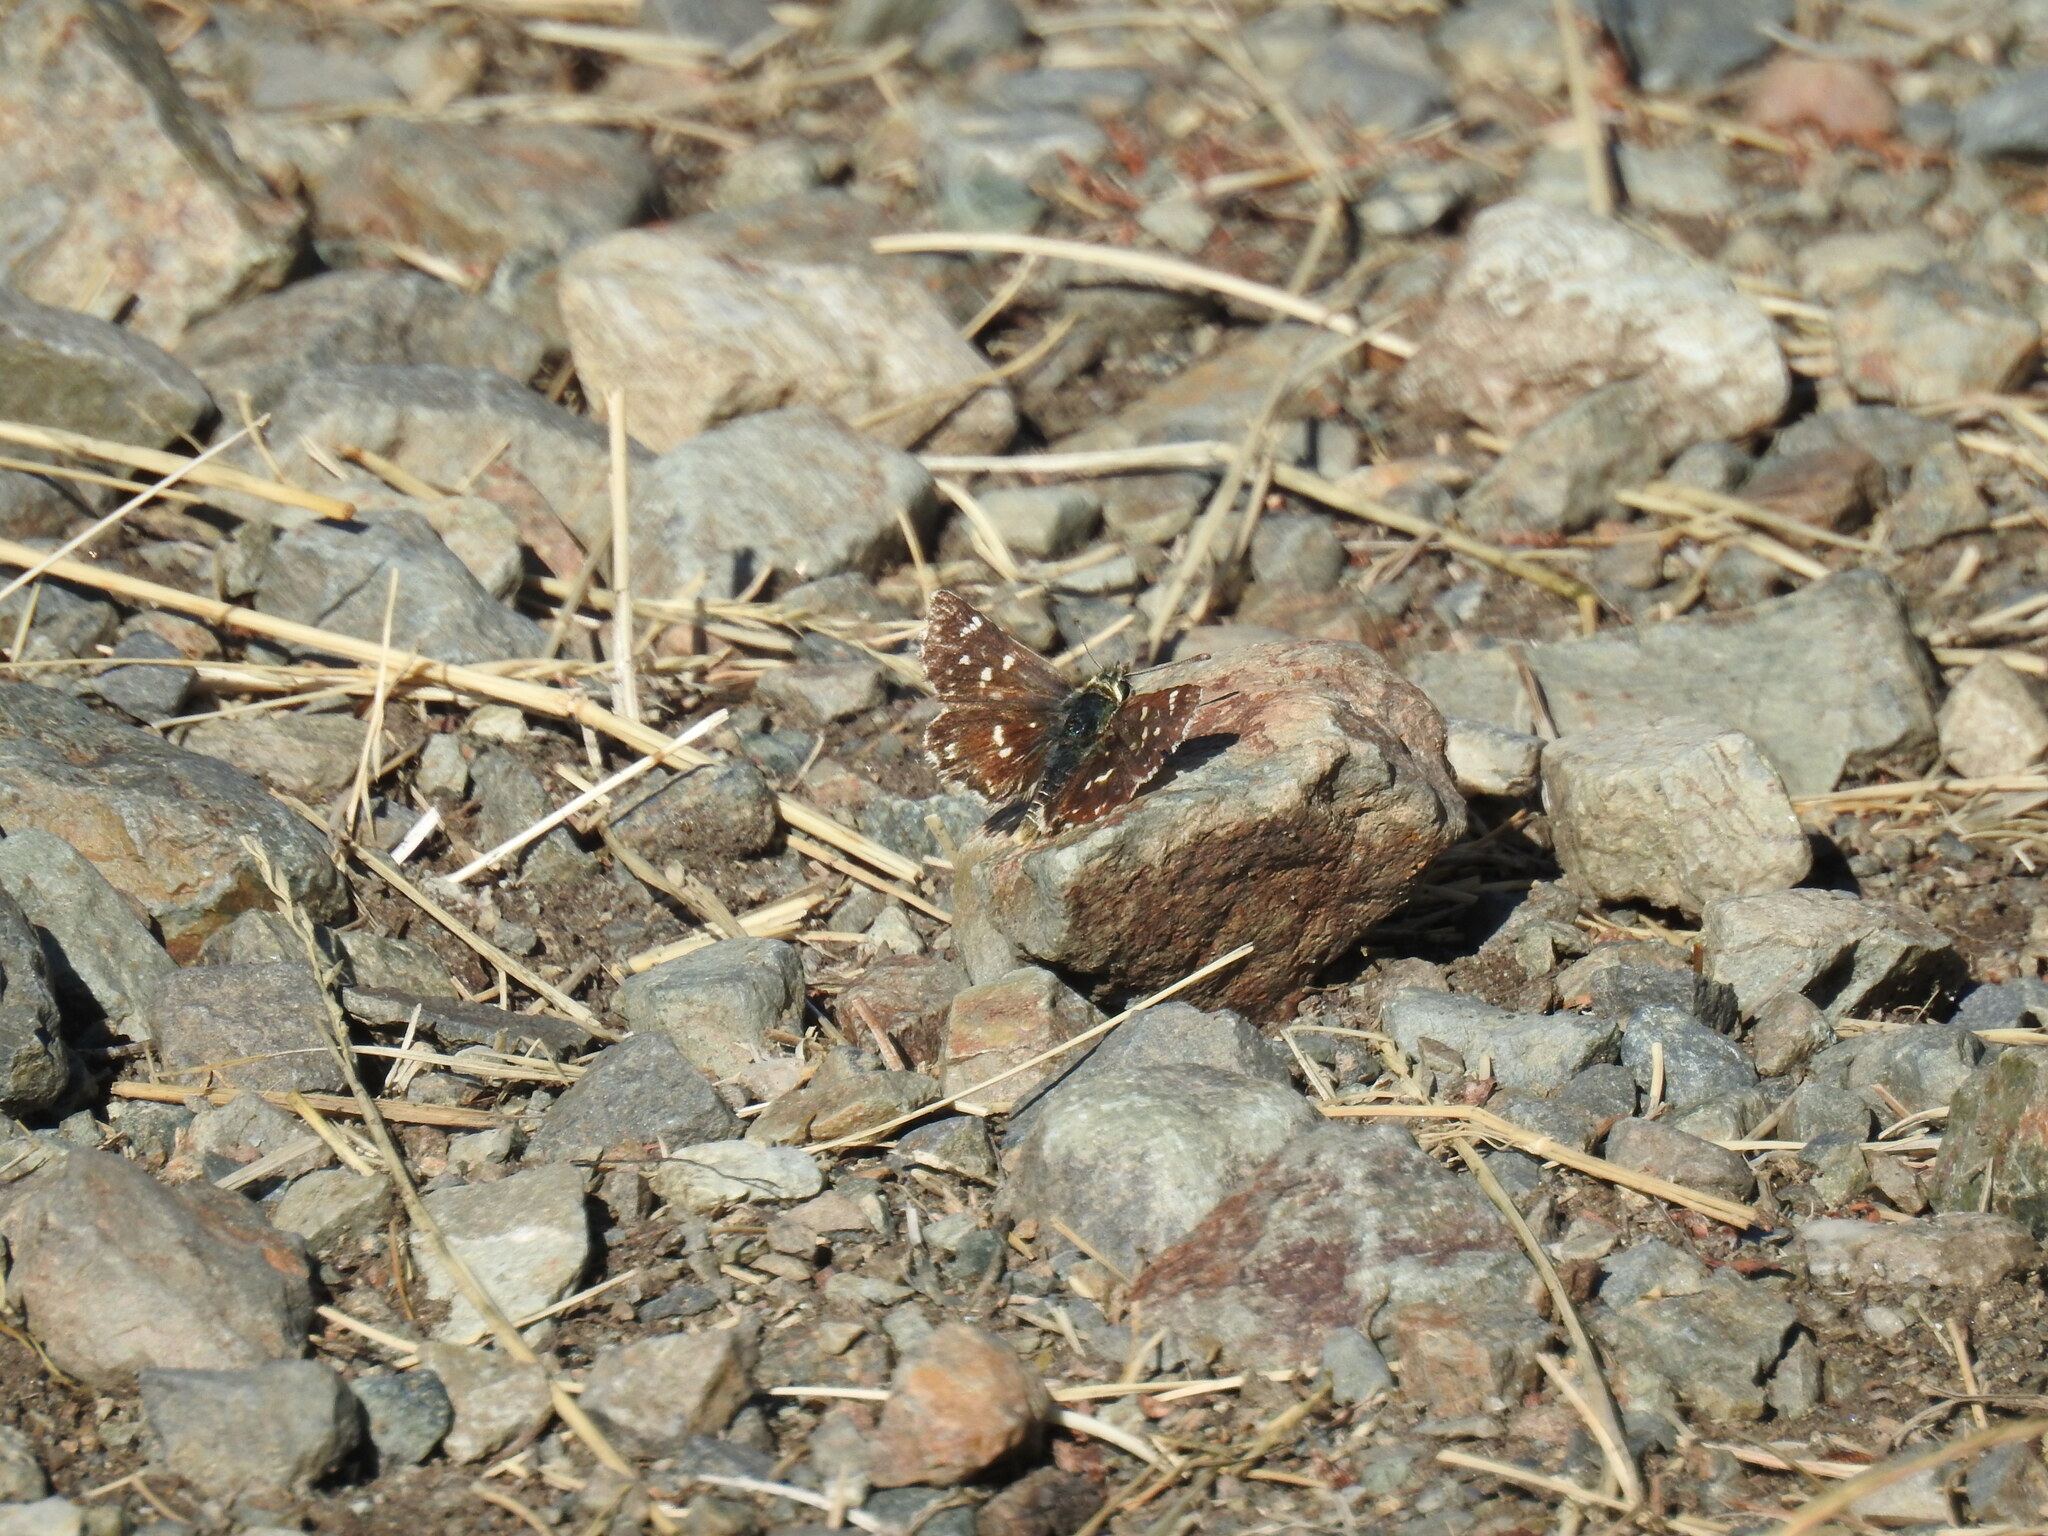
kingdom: Animalia
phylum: Arthropoda
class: Insecta
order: Lepidoptera
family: Hesperiidae
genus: Spialia
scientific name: Spialia sertorius
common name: Red underwing skipper
